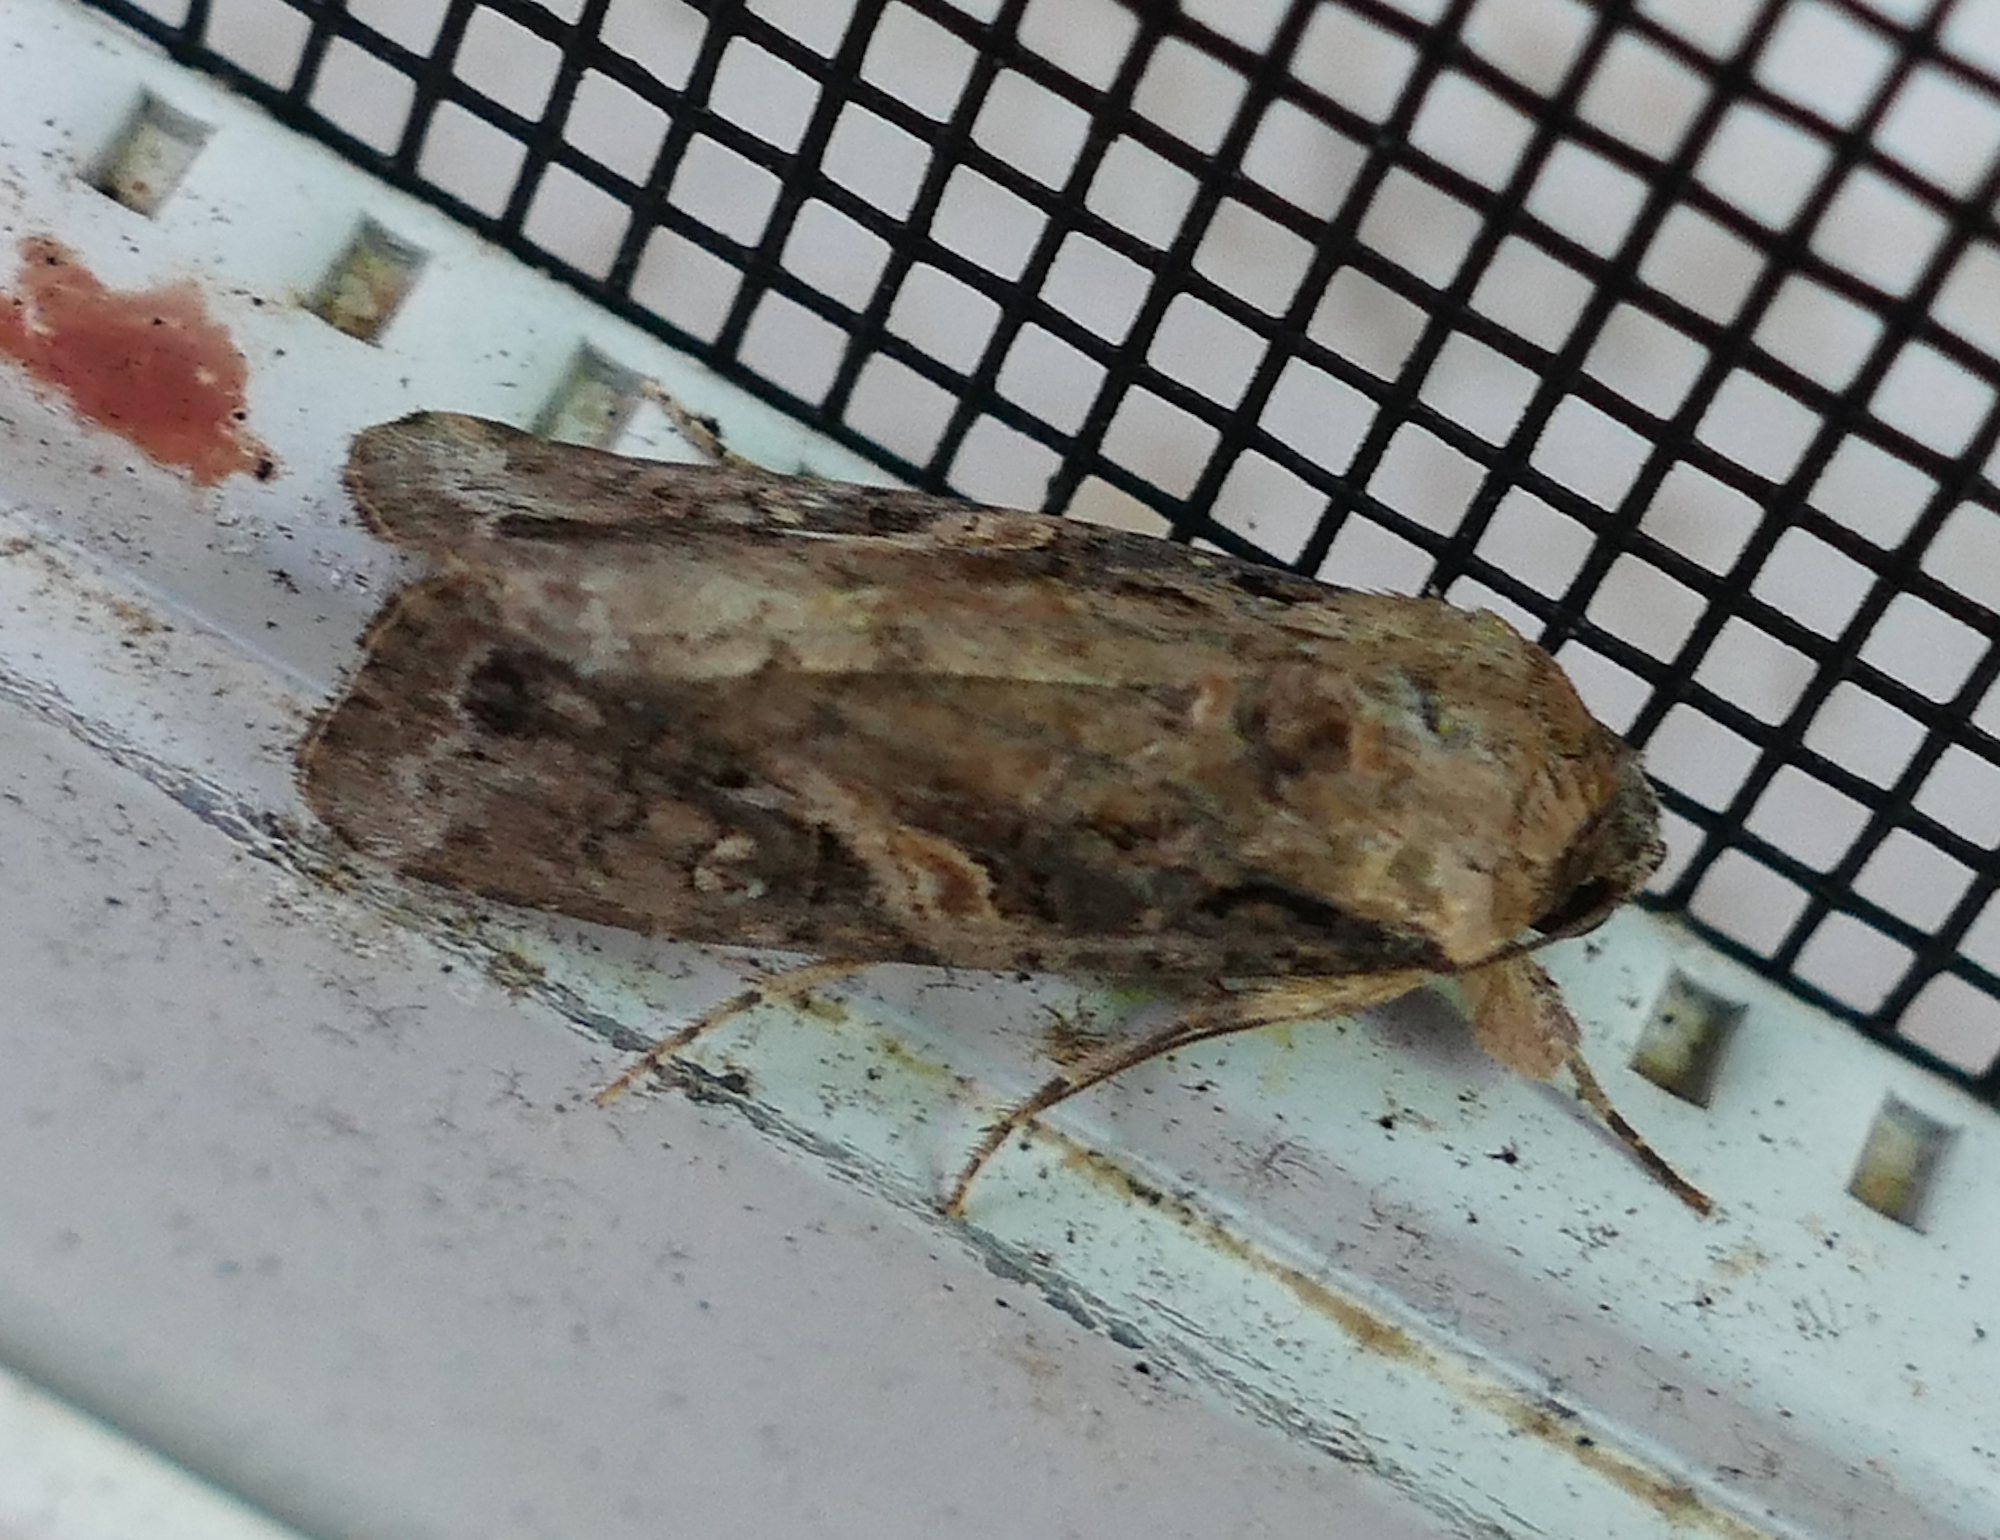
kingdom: Animalia
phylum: Arthropoda
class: Insecta
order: Lepidoptera
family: Noctuidae
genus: Spodoptera
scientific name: Spodoptera frugiperda
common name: Fall armyworm
